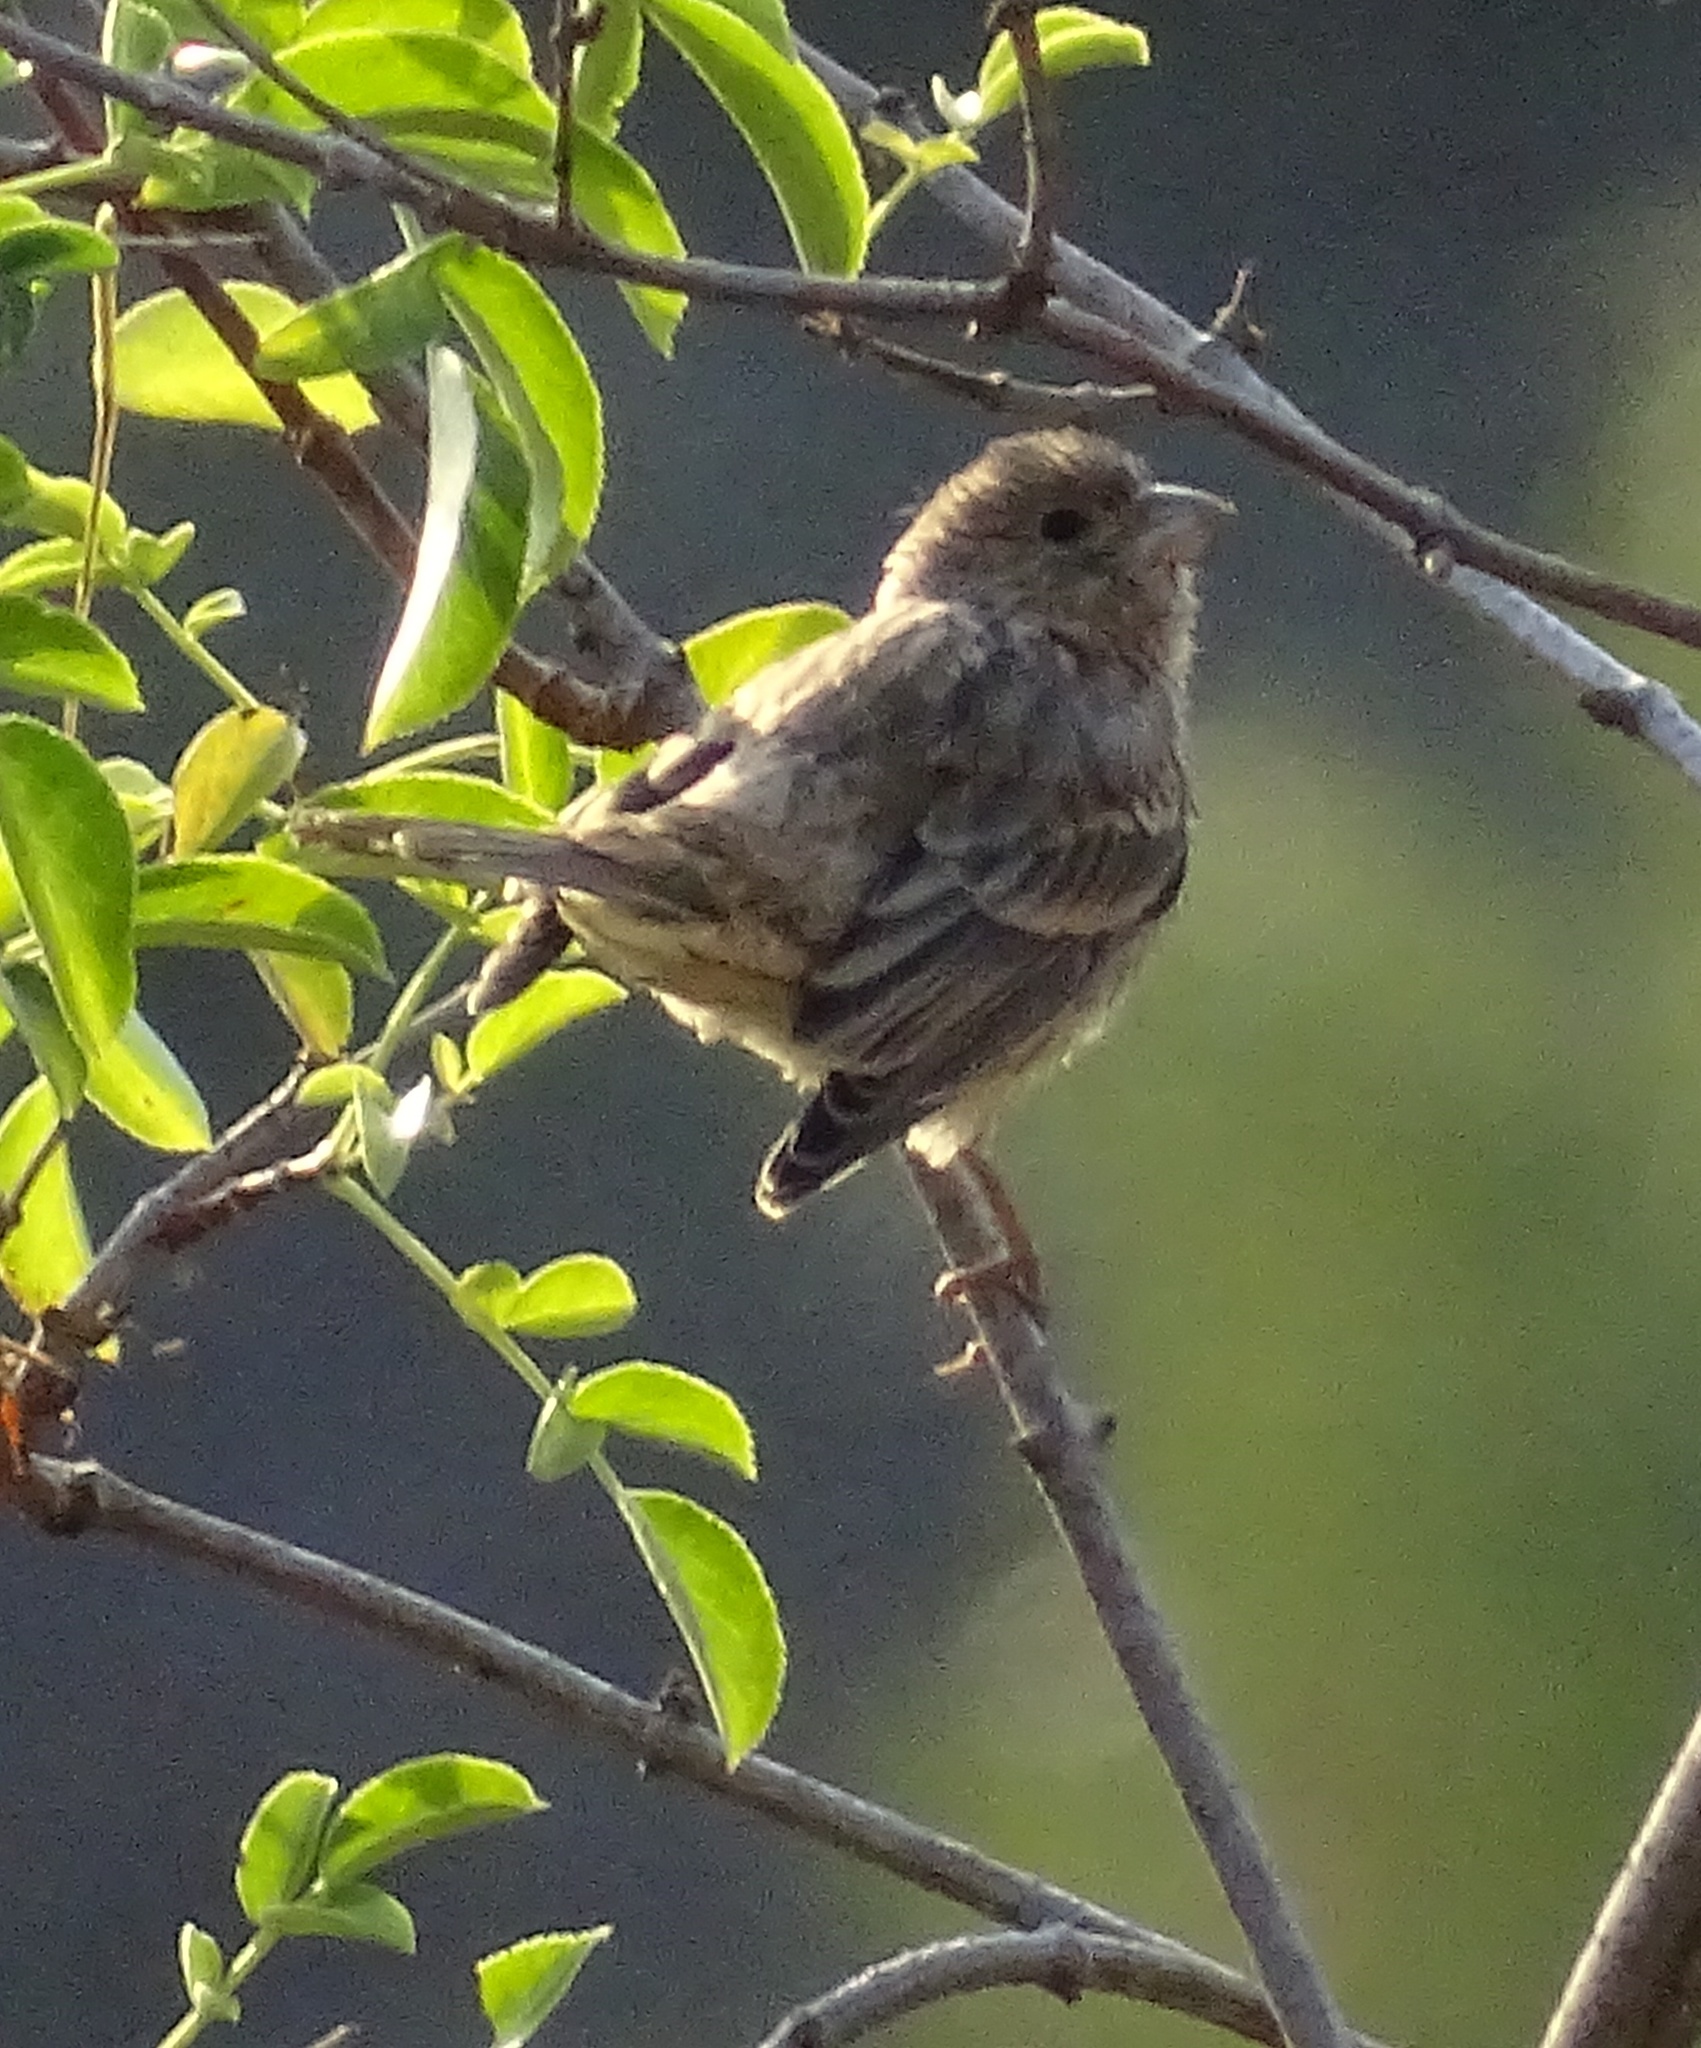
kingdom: Animalia
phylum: Chordata
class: Aves
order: Passeriformes
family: Fringillidae
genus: Haemorhous
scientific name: Haemorhous mexicanus
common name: House finch
